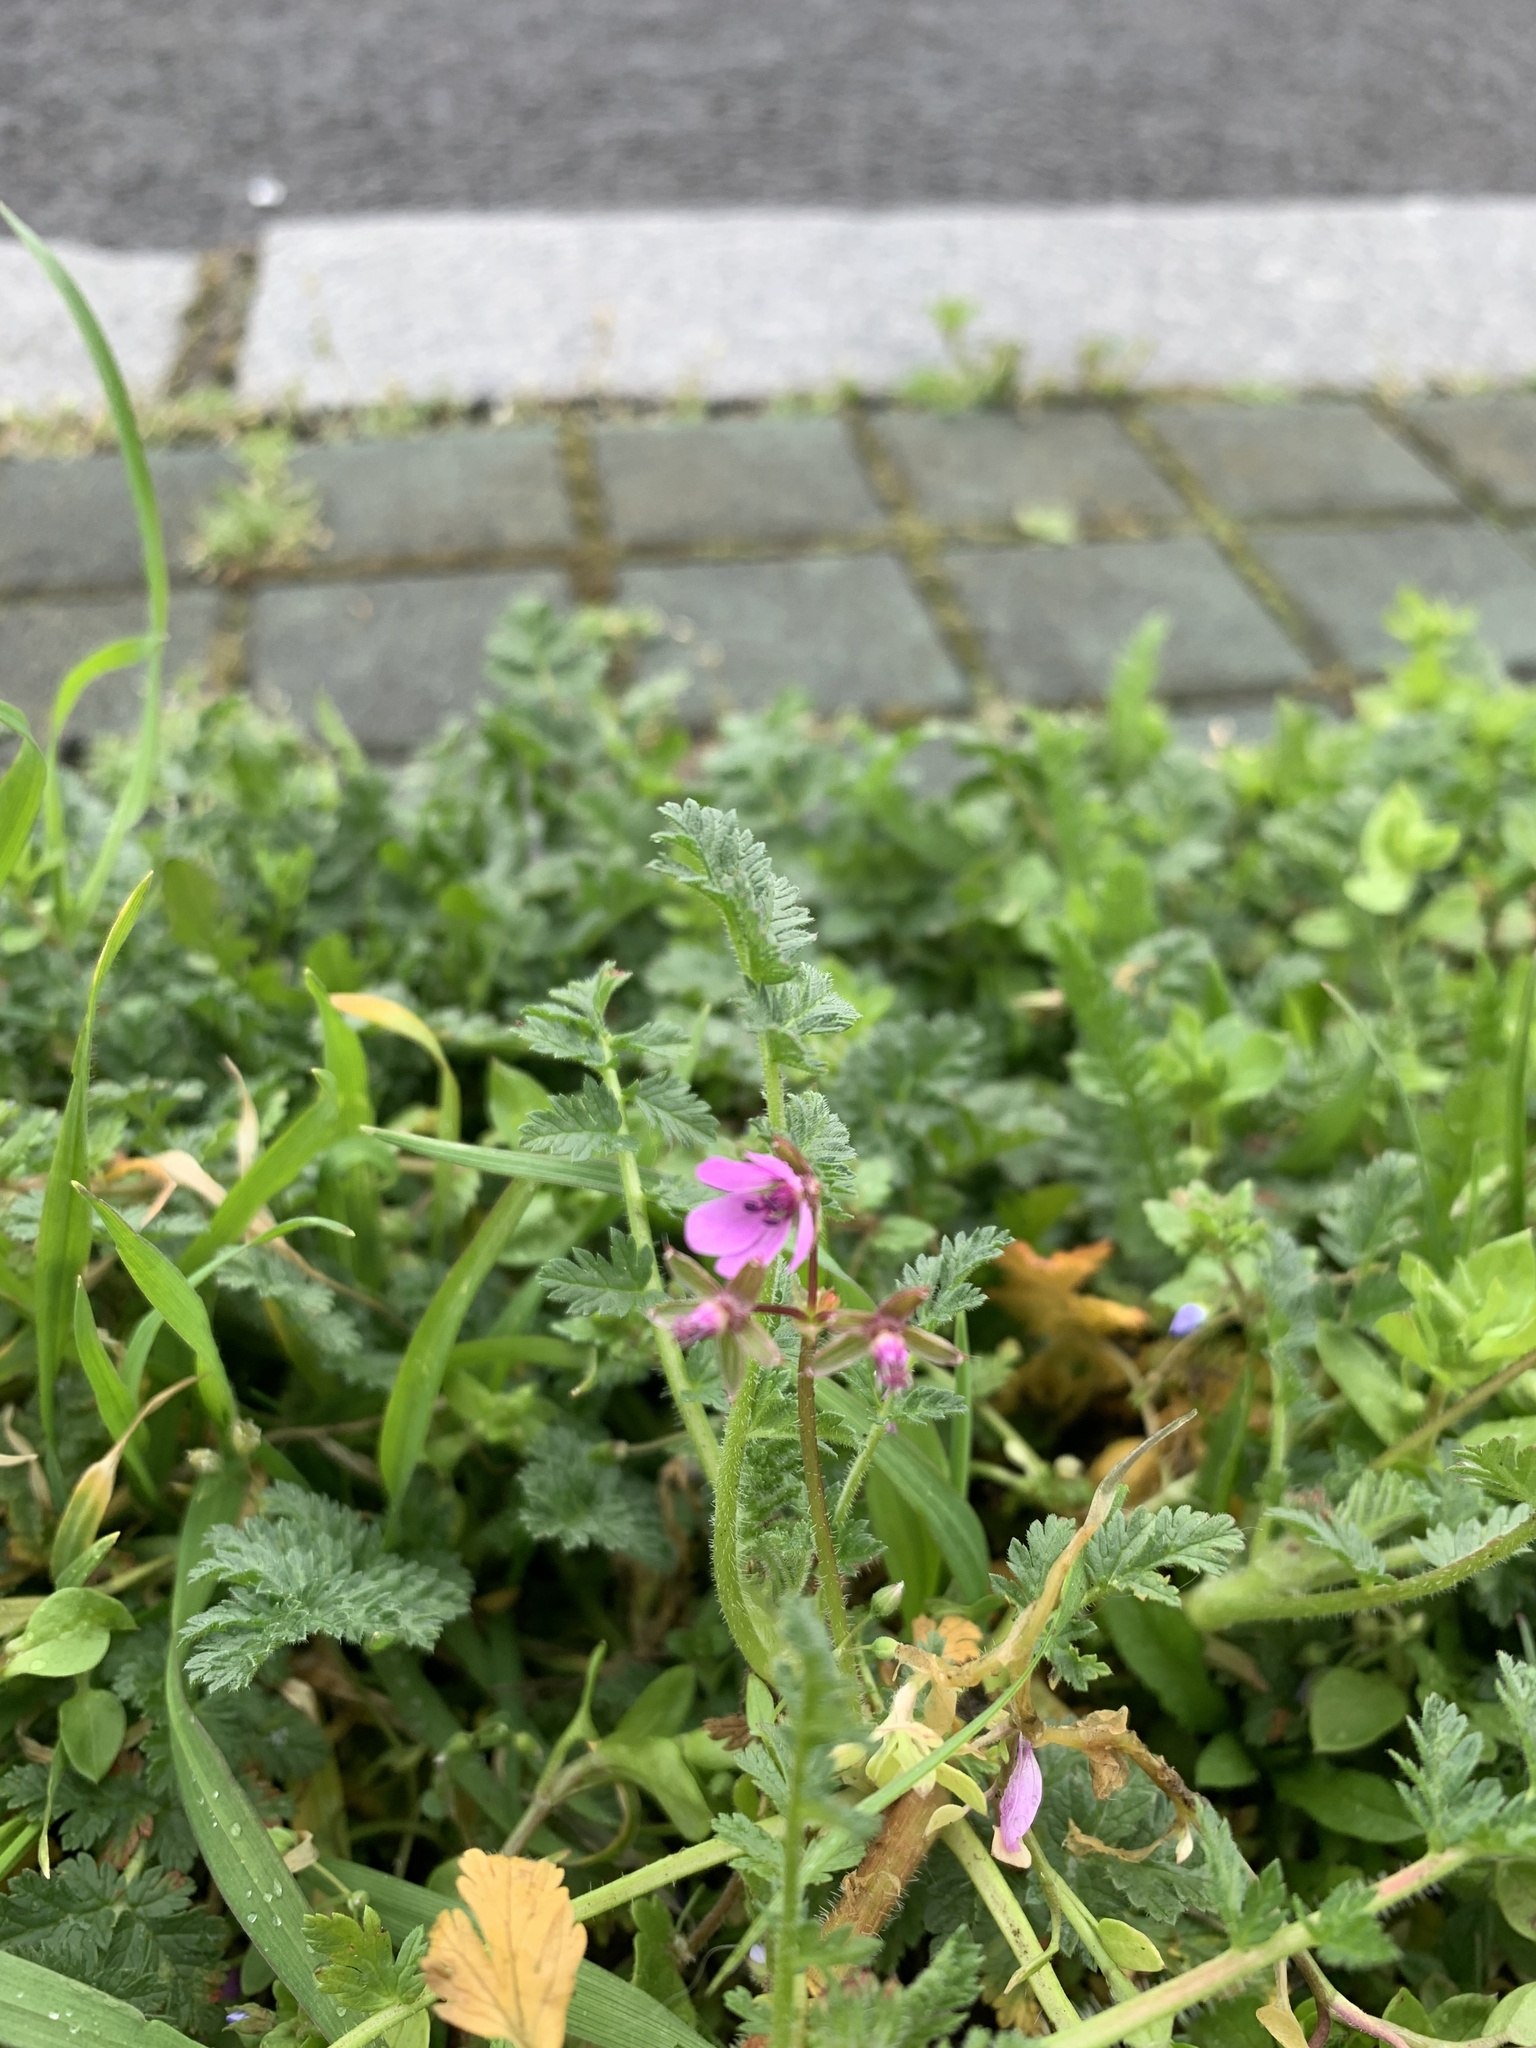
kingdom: Plantae
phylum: Tracheophyta
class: Magnoliopsida
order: Geraniales
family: Geraniaceae
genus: Erodium
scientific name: Erodium cicutarium
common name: Common stork's-bill
